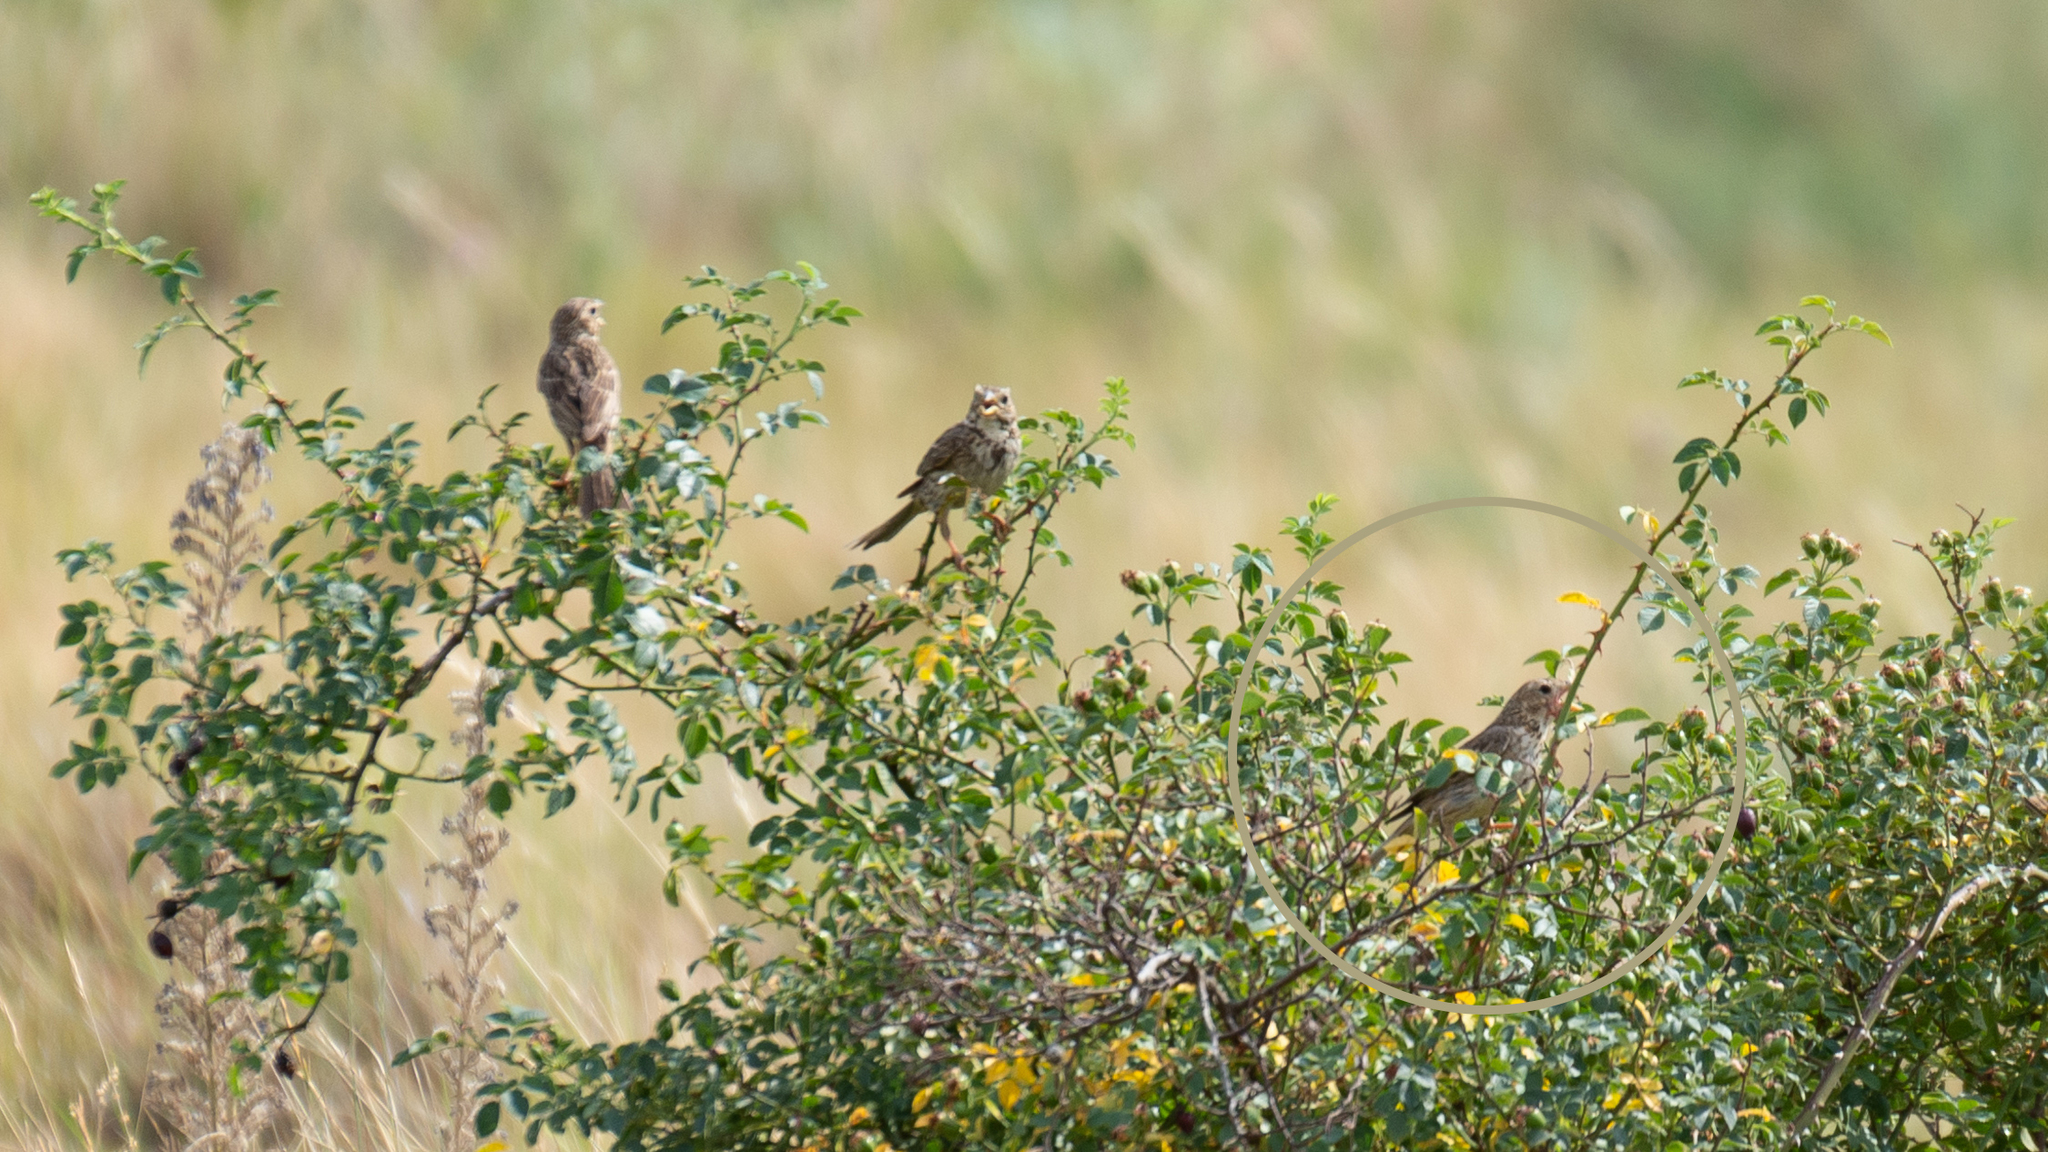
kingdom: Animalia
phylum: Chordata
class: Aves
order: Passeriformes
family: Emberizidae
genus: Emberiza
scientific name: Emberiza calandra
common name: Corn bunting
